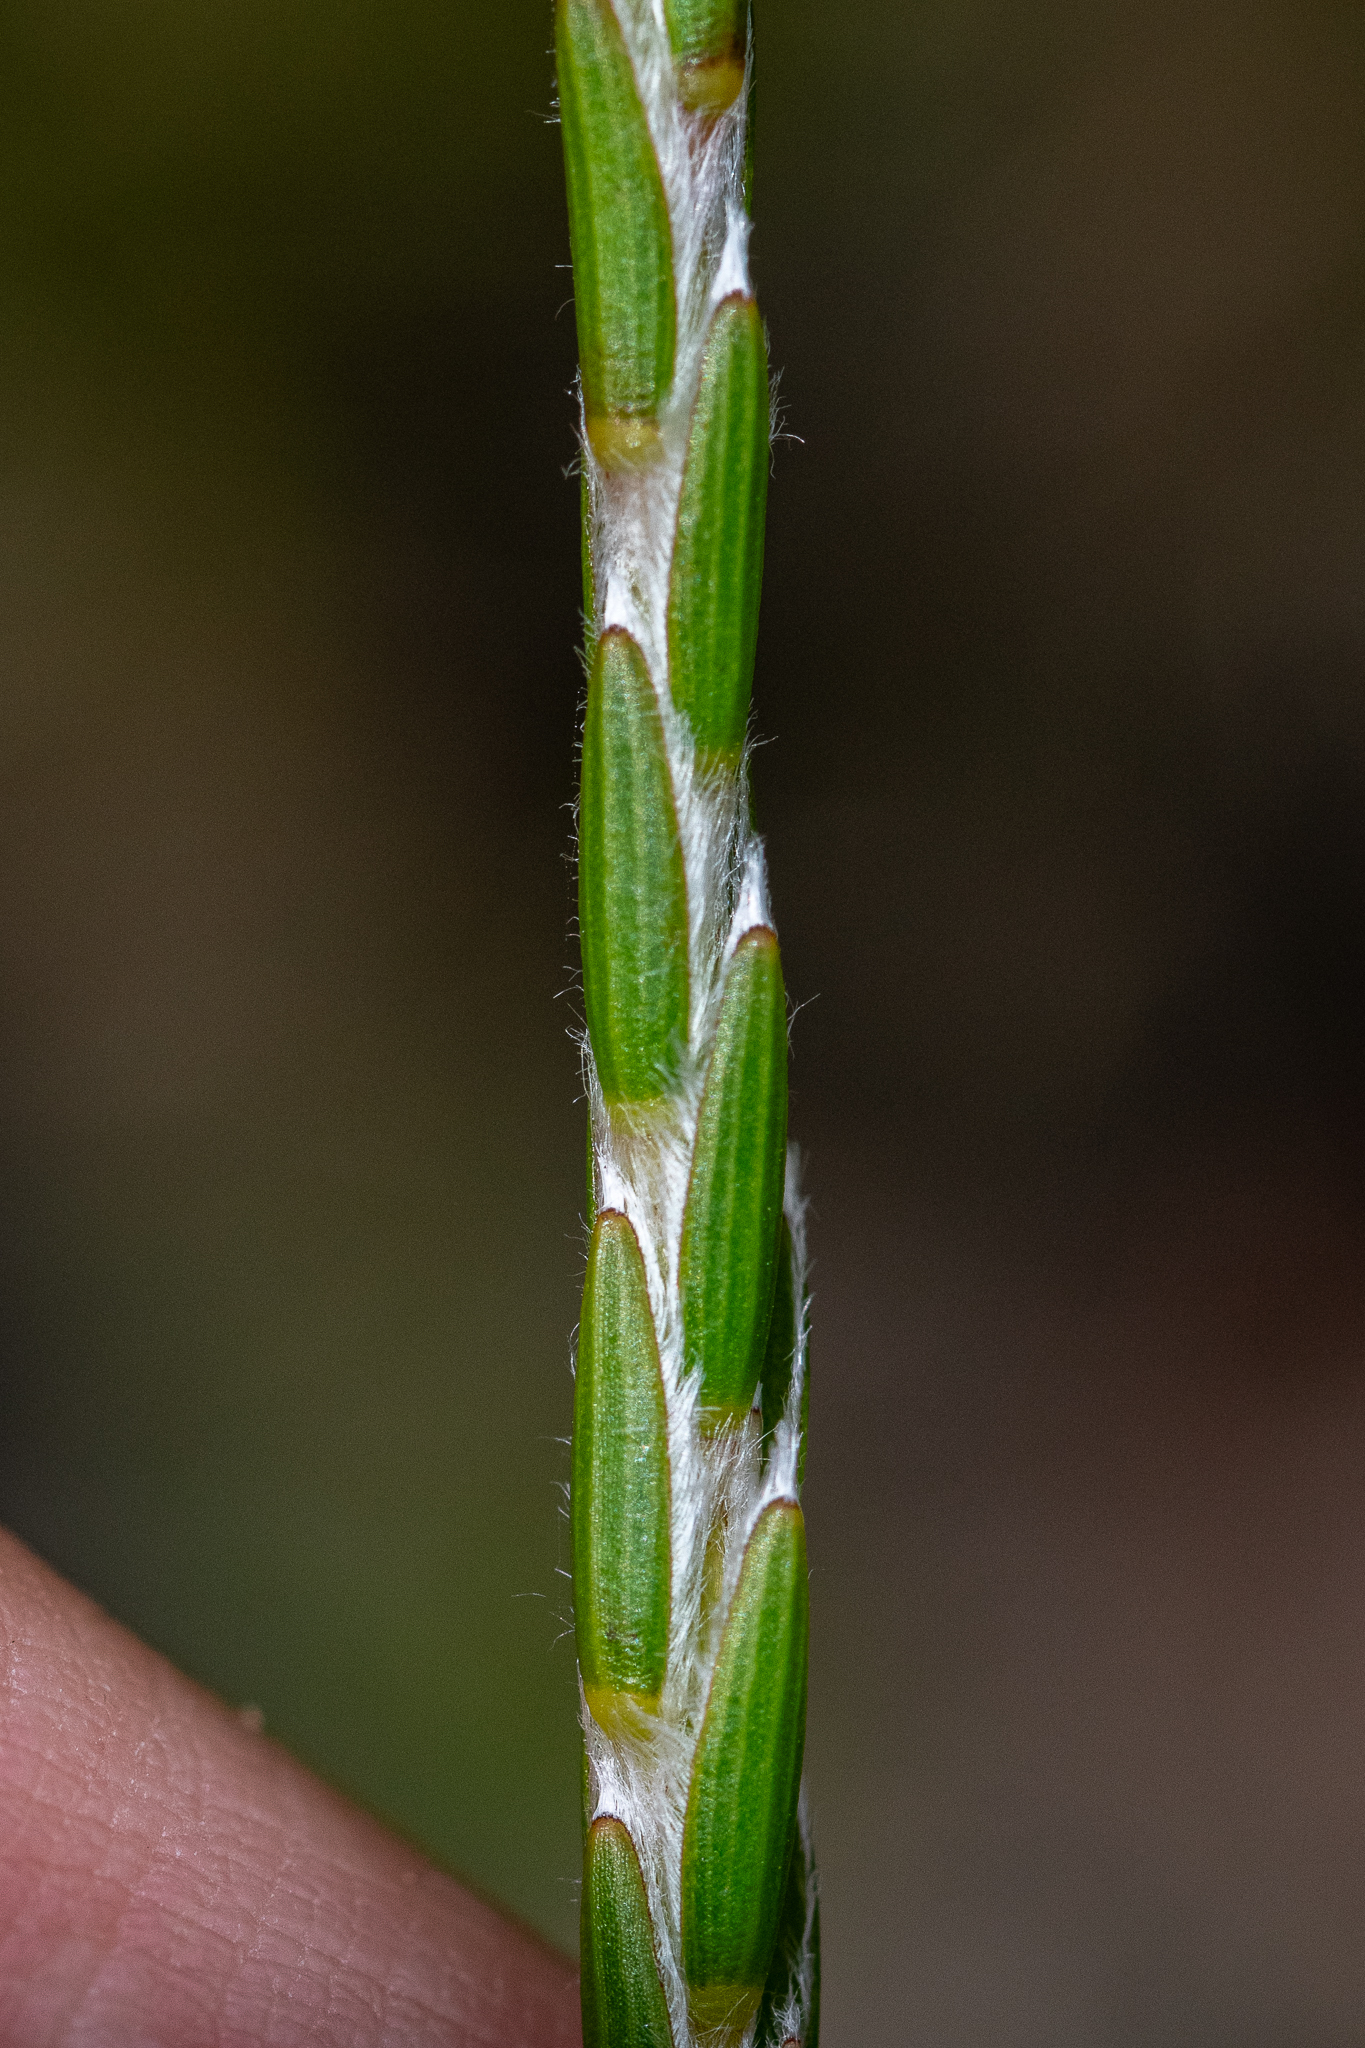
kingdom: Plantae
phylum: Tracheophyta
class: Magnoliopsida
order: Malvales
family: Thymelaeaceae
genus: Struthiola
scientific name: Struthiola ciliata
